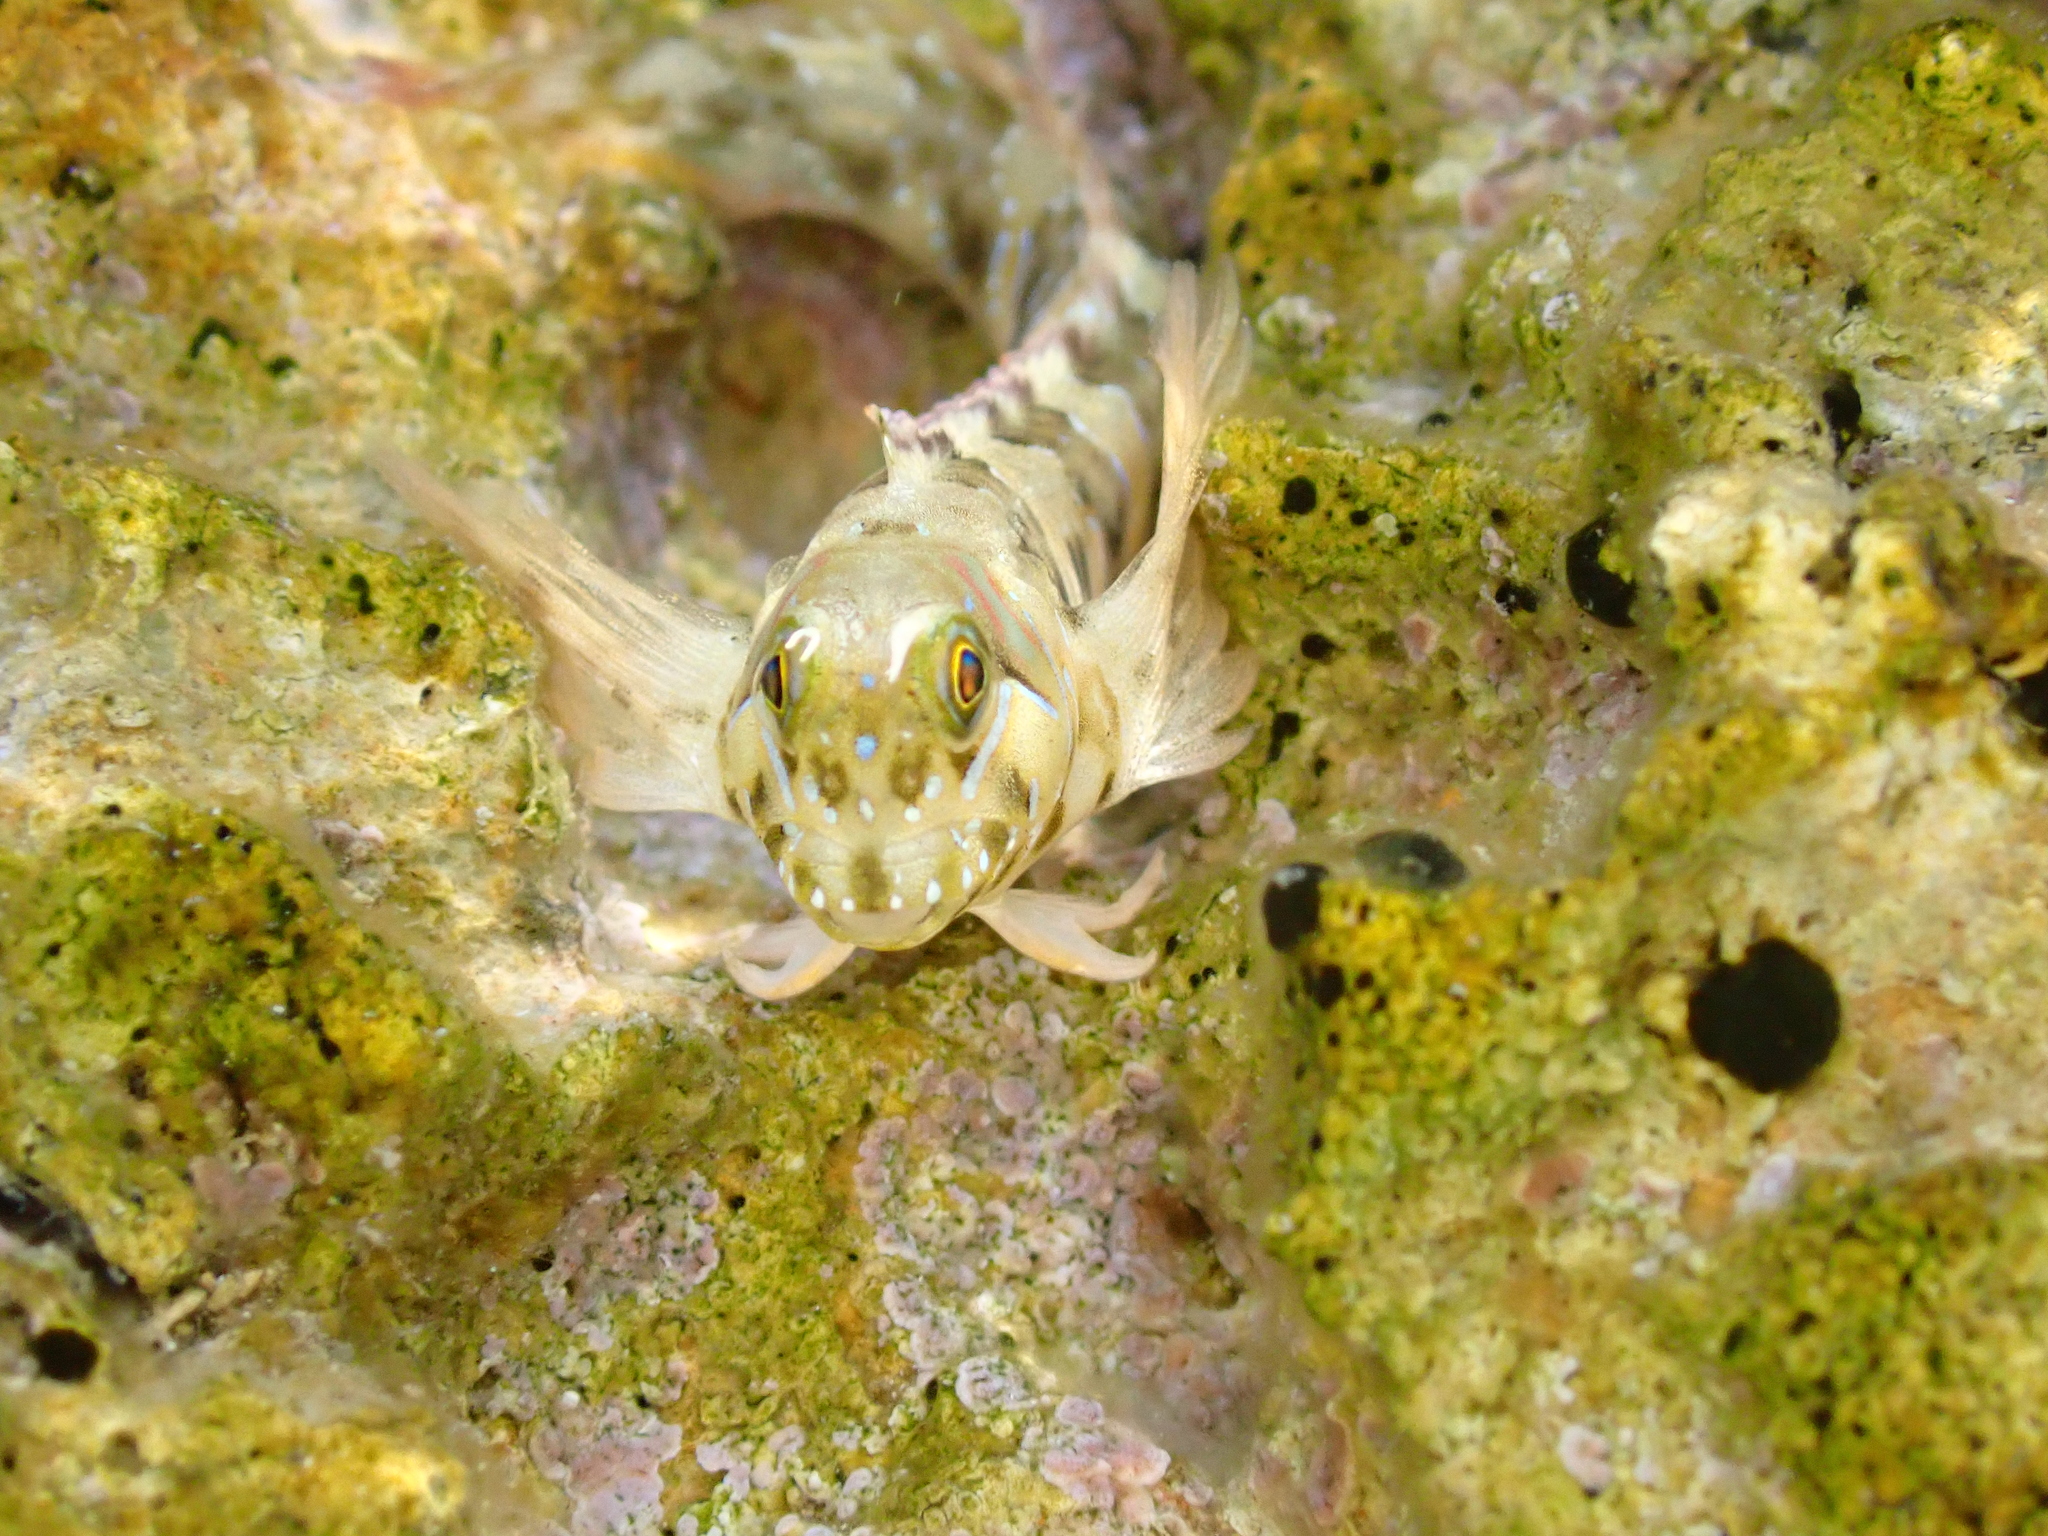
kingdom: Animalia
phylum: Chordata
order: Perciformes
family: Blenniidae
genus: Aidablennius
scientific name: Aidablennius sphynx
